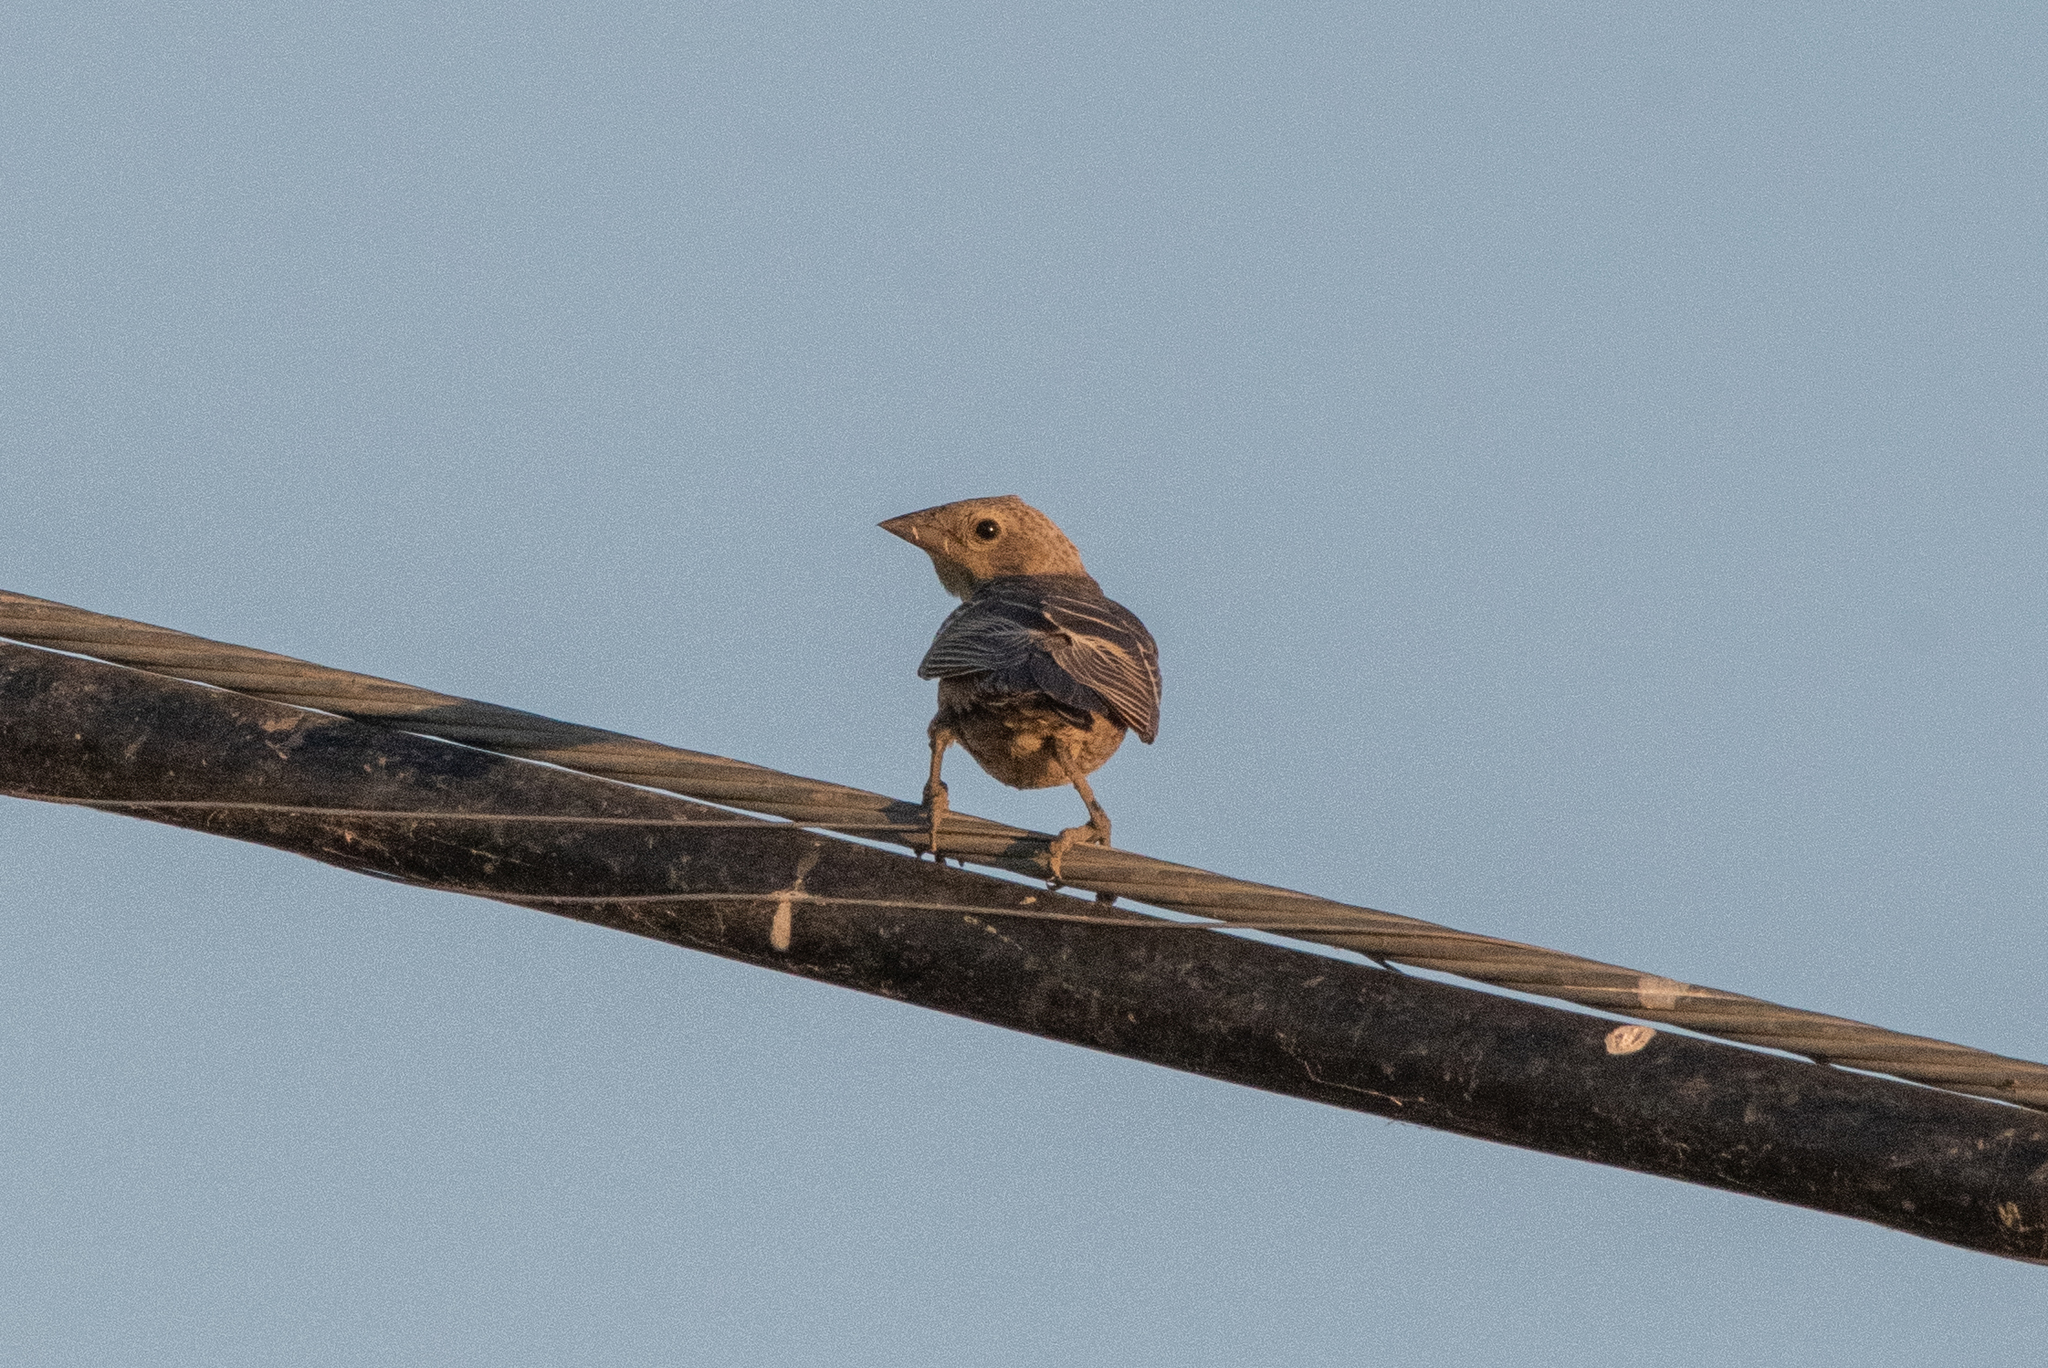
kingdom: Animalia
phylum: Chordata
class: Aves
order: Passeriformes
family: Cardinalidae
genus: Passerina
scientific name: Passerina amoena
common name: Lazuli bunting
